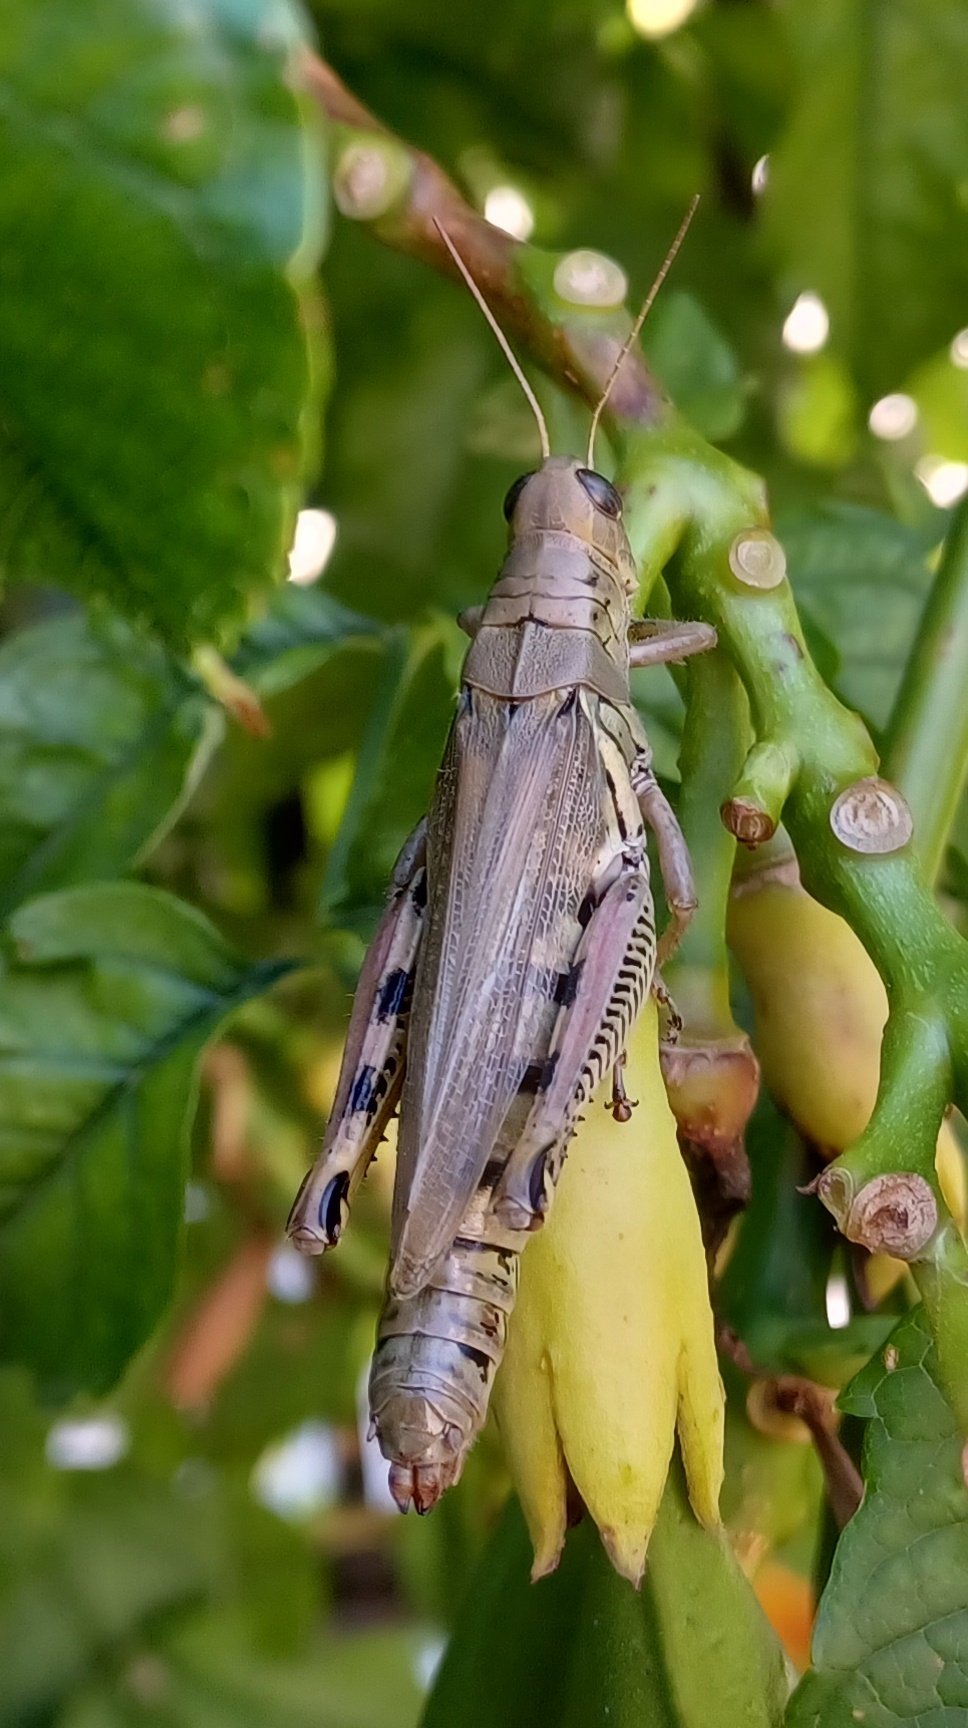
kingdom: Animalia
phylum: Arthropoda
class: Insecta
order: Orthoptera
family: Acrididae
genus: Melanoplus
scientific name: Melanoplus differentialis
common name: Differential grasshopper
